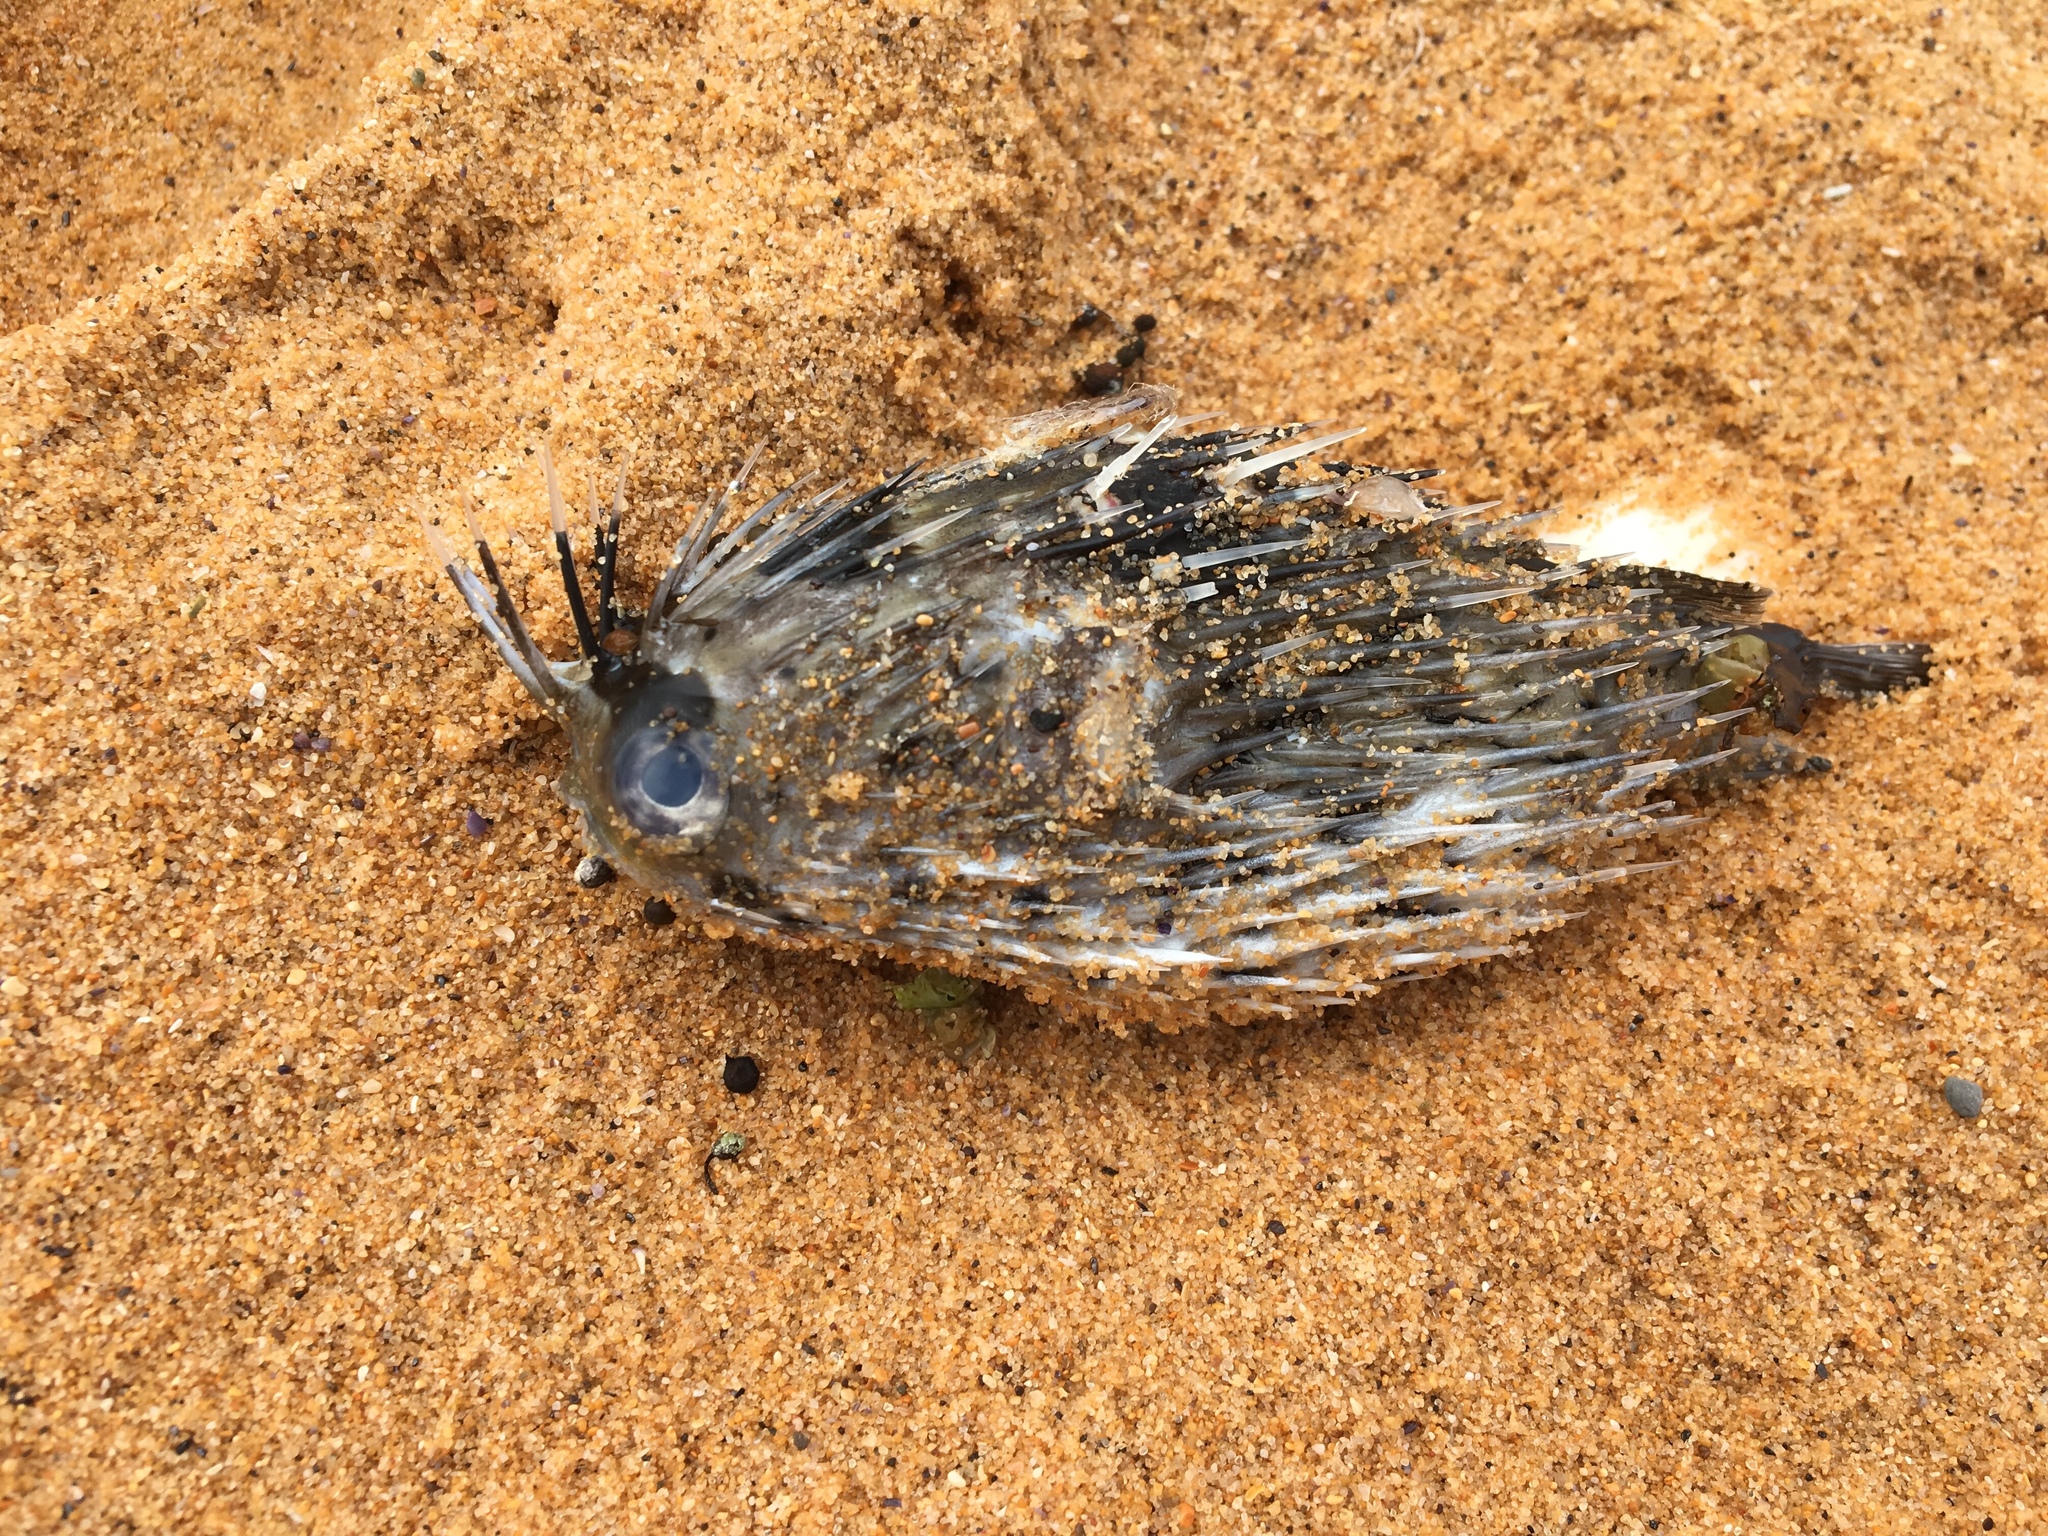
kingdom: Animalia
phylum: Chordata
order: Tetraodontiformes
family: Diodontidae
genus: Diodon
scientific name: Diodon holocanthus
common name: Balloonfish
